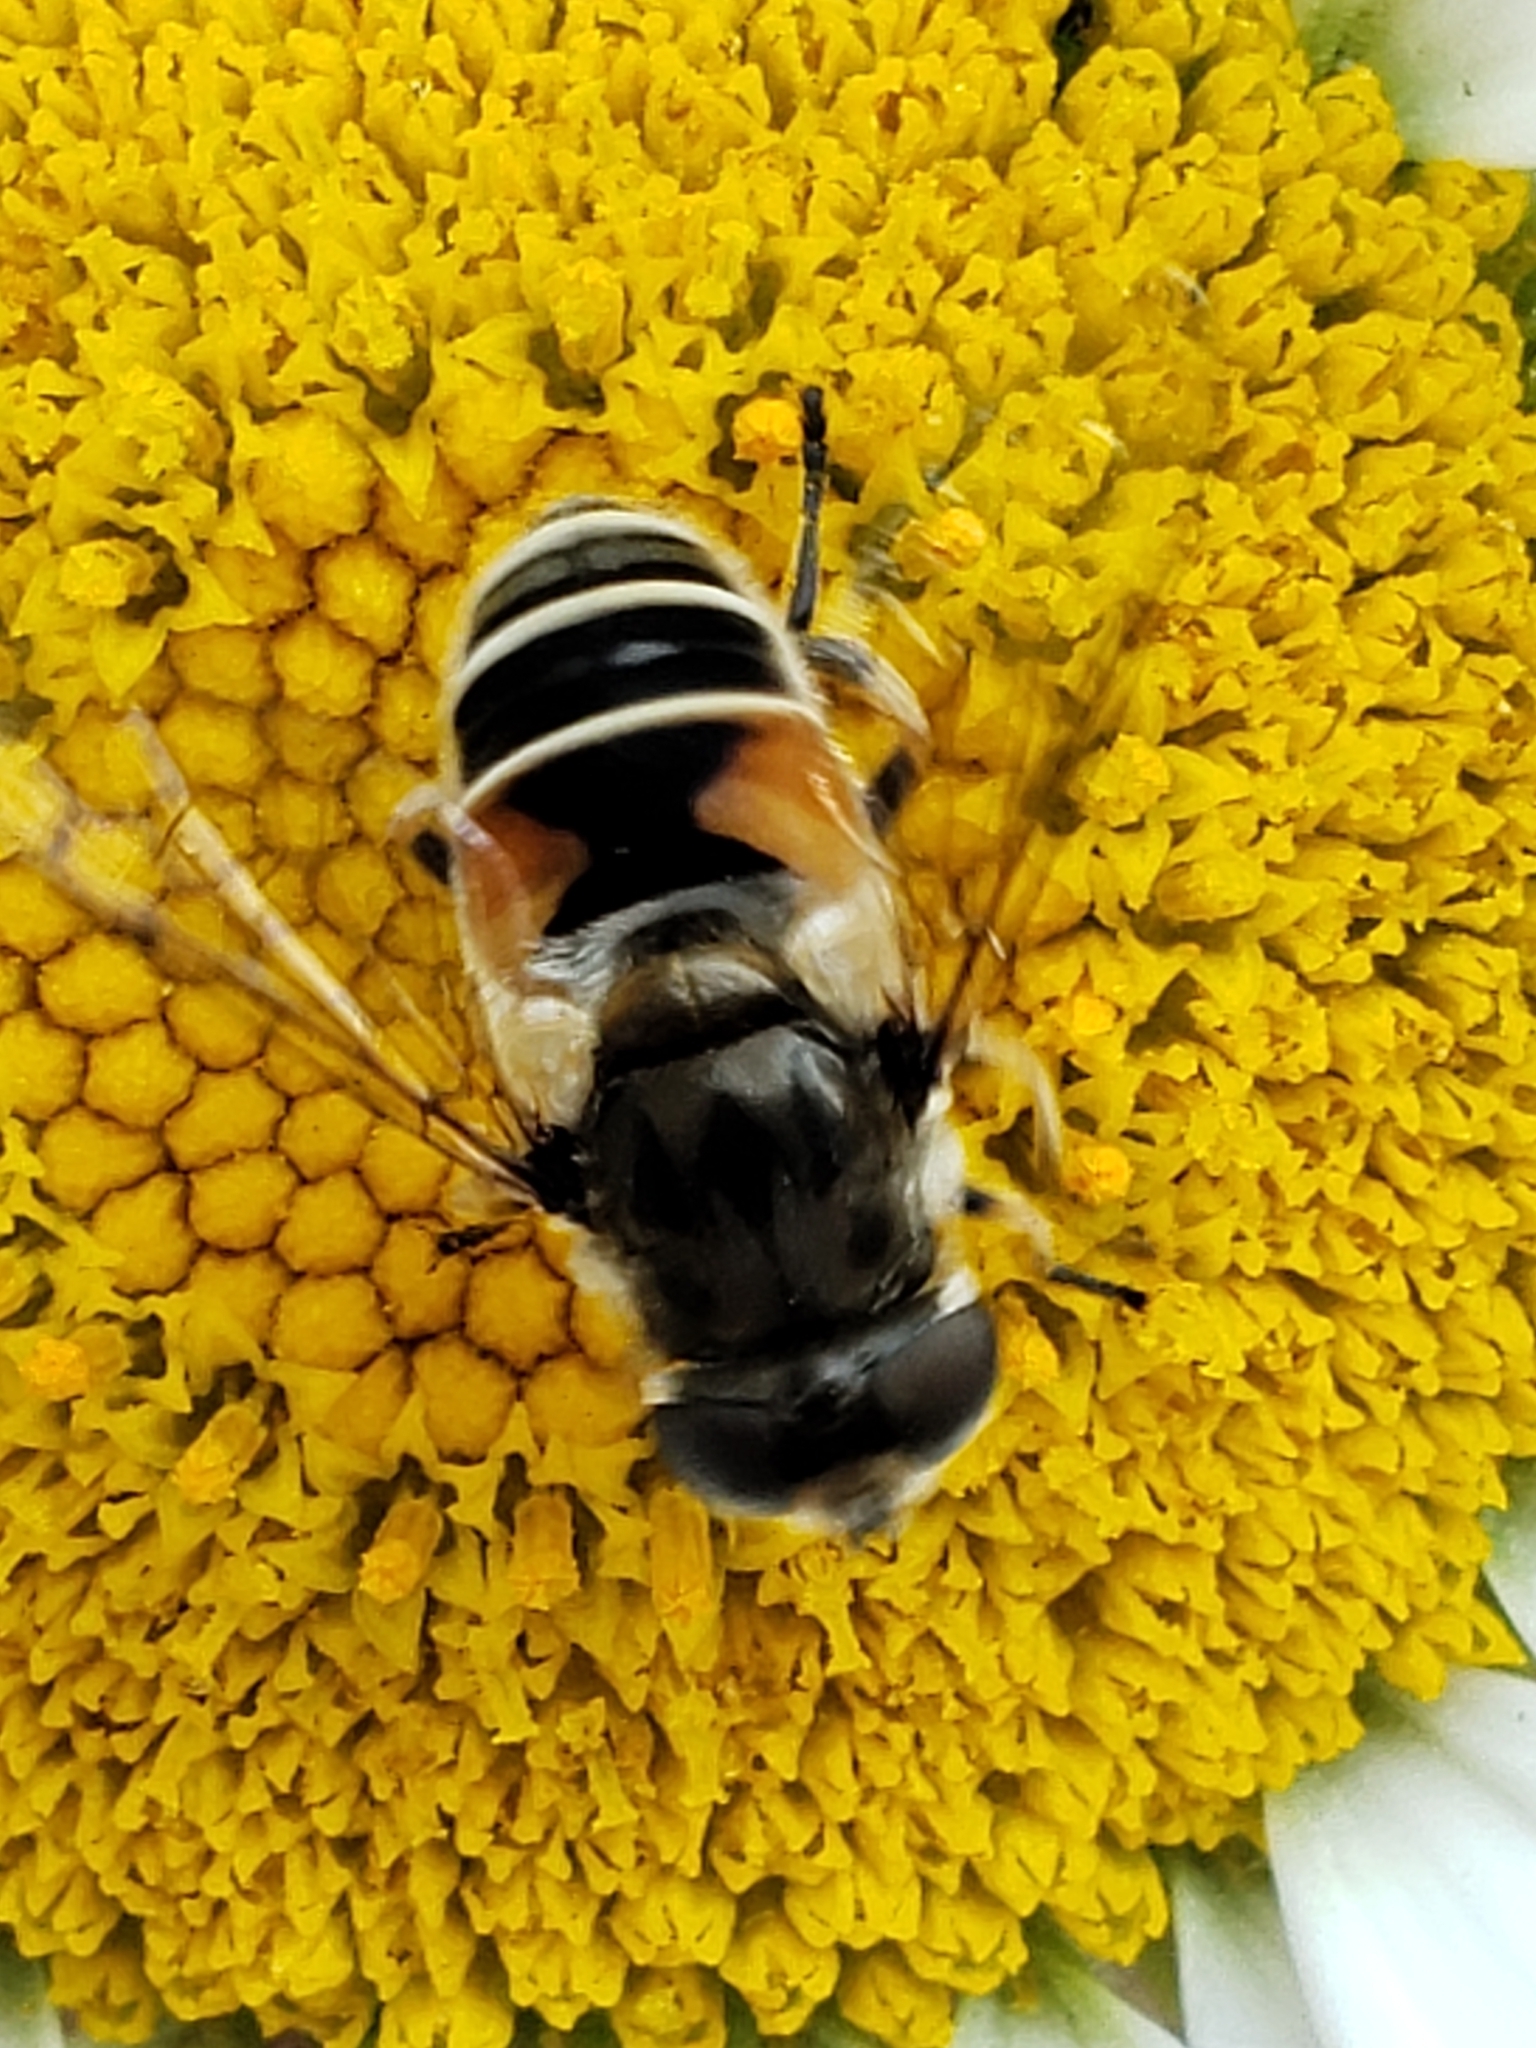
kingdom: Animalia
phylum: Arthropoda
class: Insecta
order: Diptera
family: Syrphidae
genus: Eristalis
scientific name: Eristalis arbustorum
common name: Hover fly
